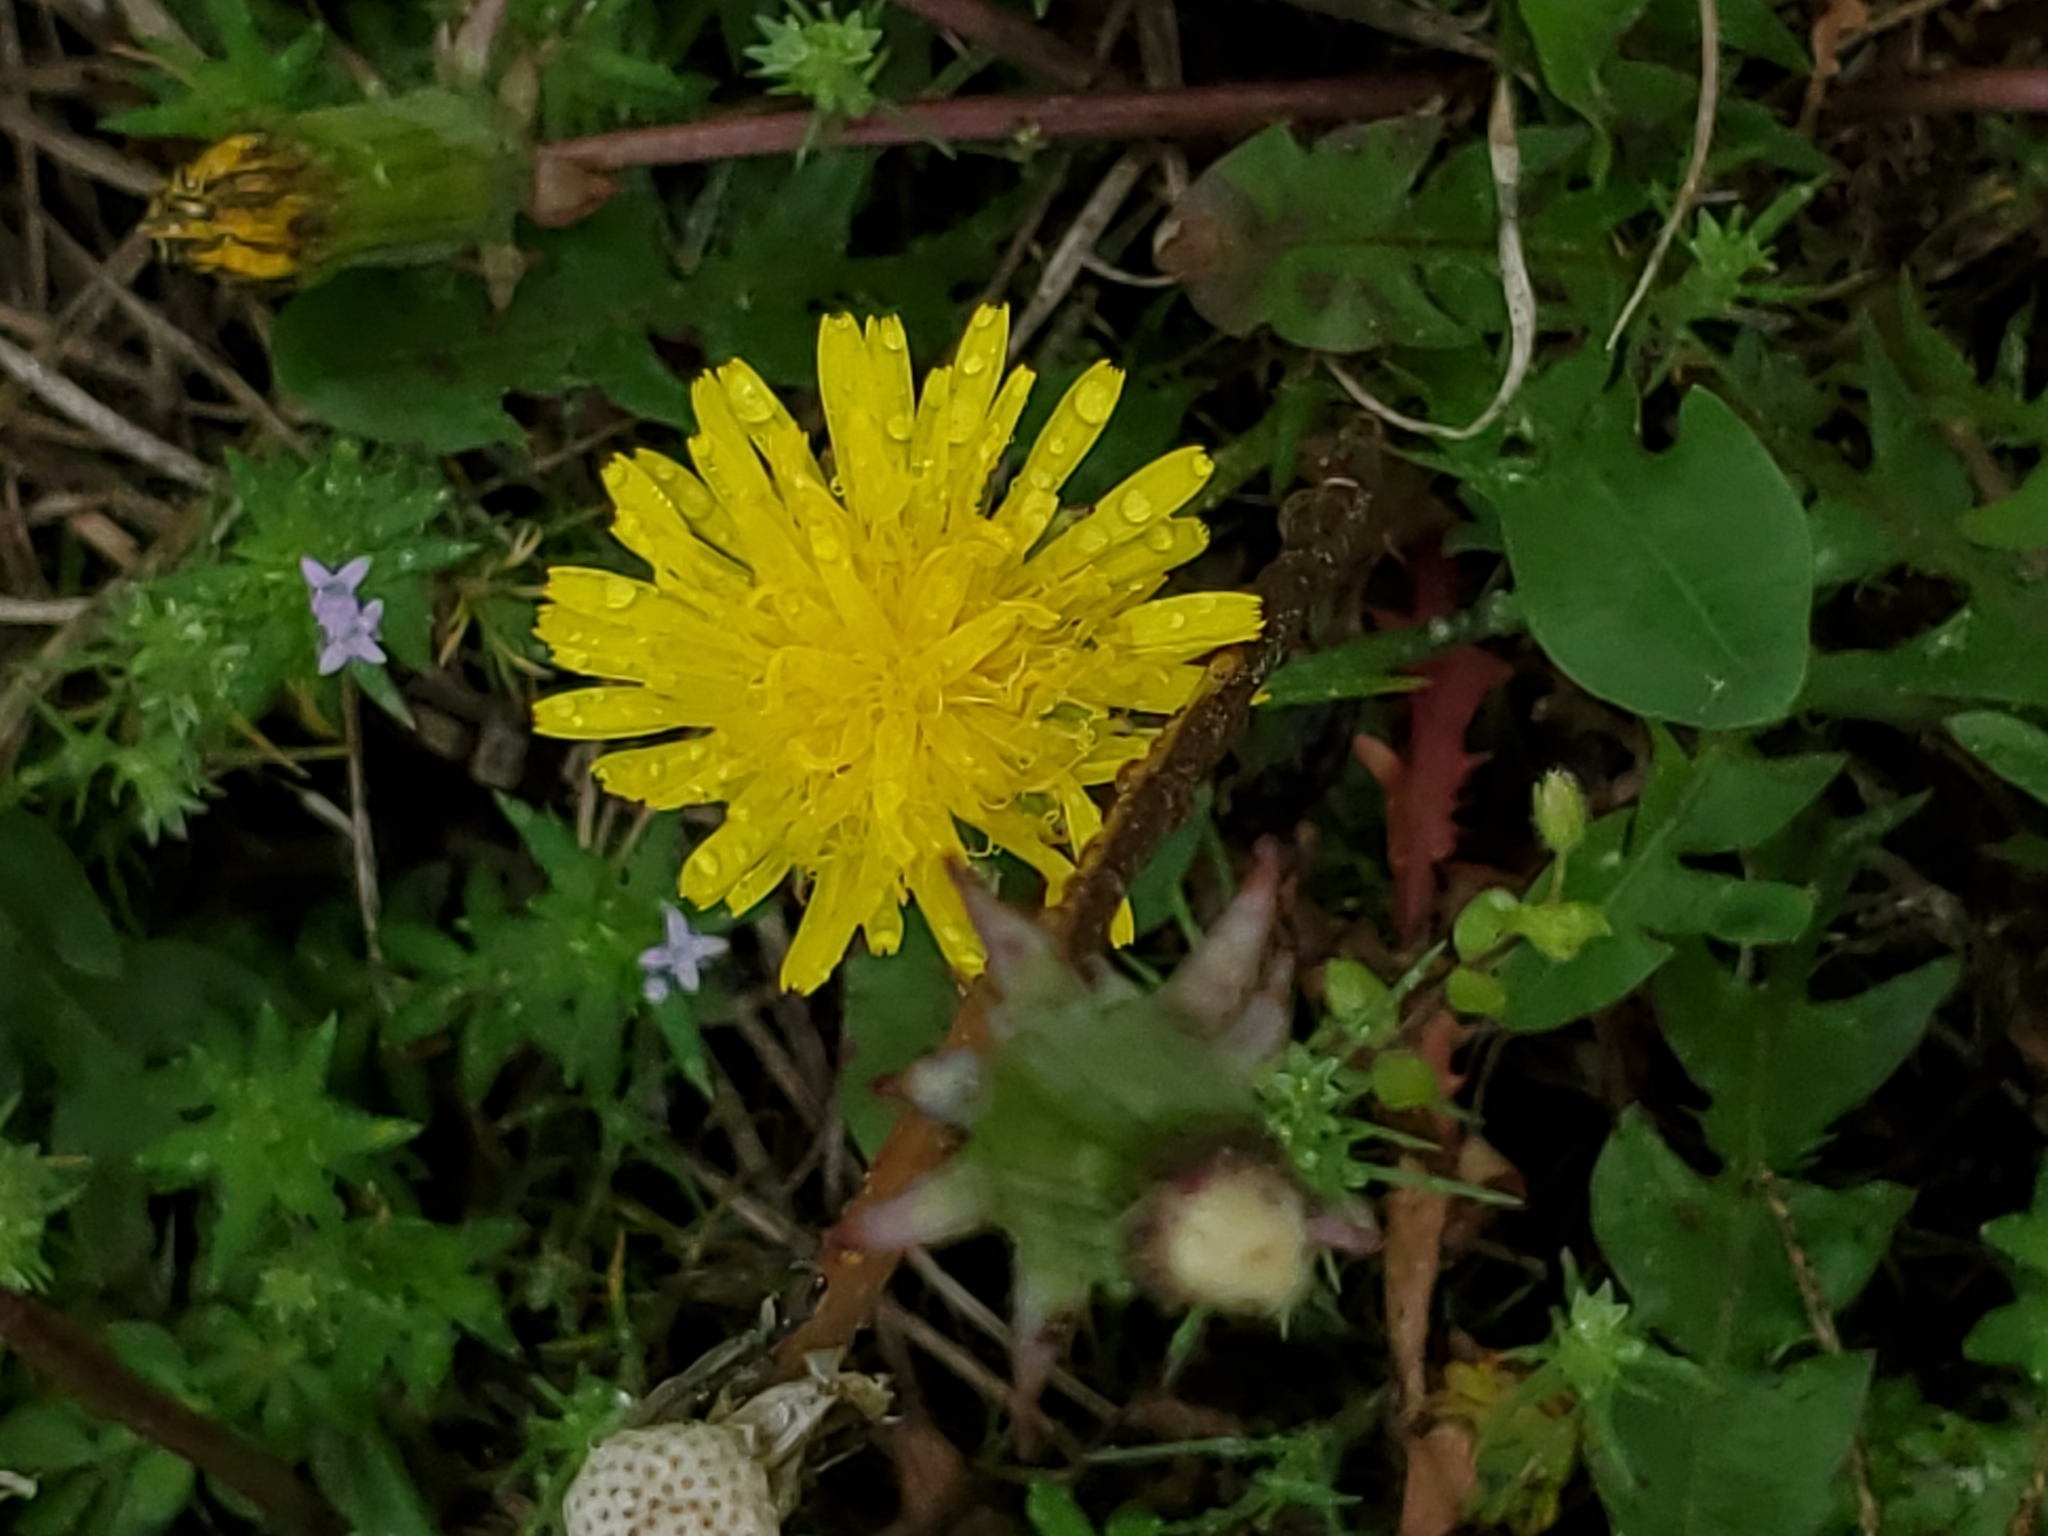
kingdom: Plantae
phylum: Tracheophyta
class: Magnoliopsida
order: Asterales
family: Asteraceae
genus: Taraxacum
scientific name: Taraxacum officinale
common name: Common dandelion
